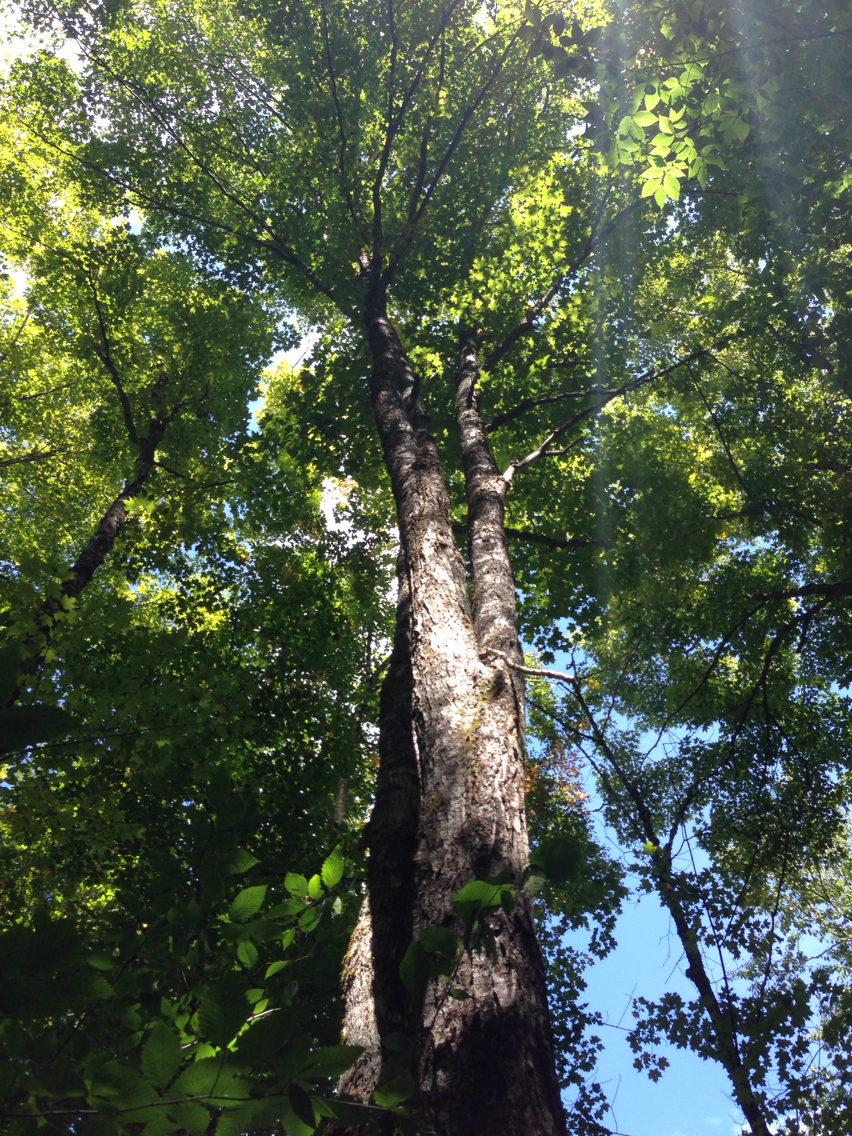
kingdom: Plantae
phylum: Tracheophyta
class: Magnoliopsida
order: Sapindales
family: Sapindaceae
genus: Acer
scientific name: Acer saccharum
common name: Sugar maple
